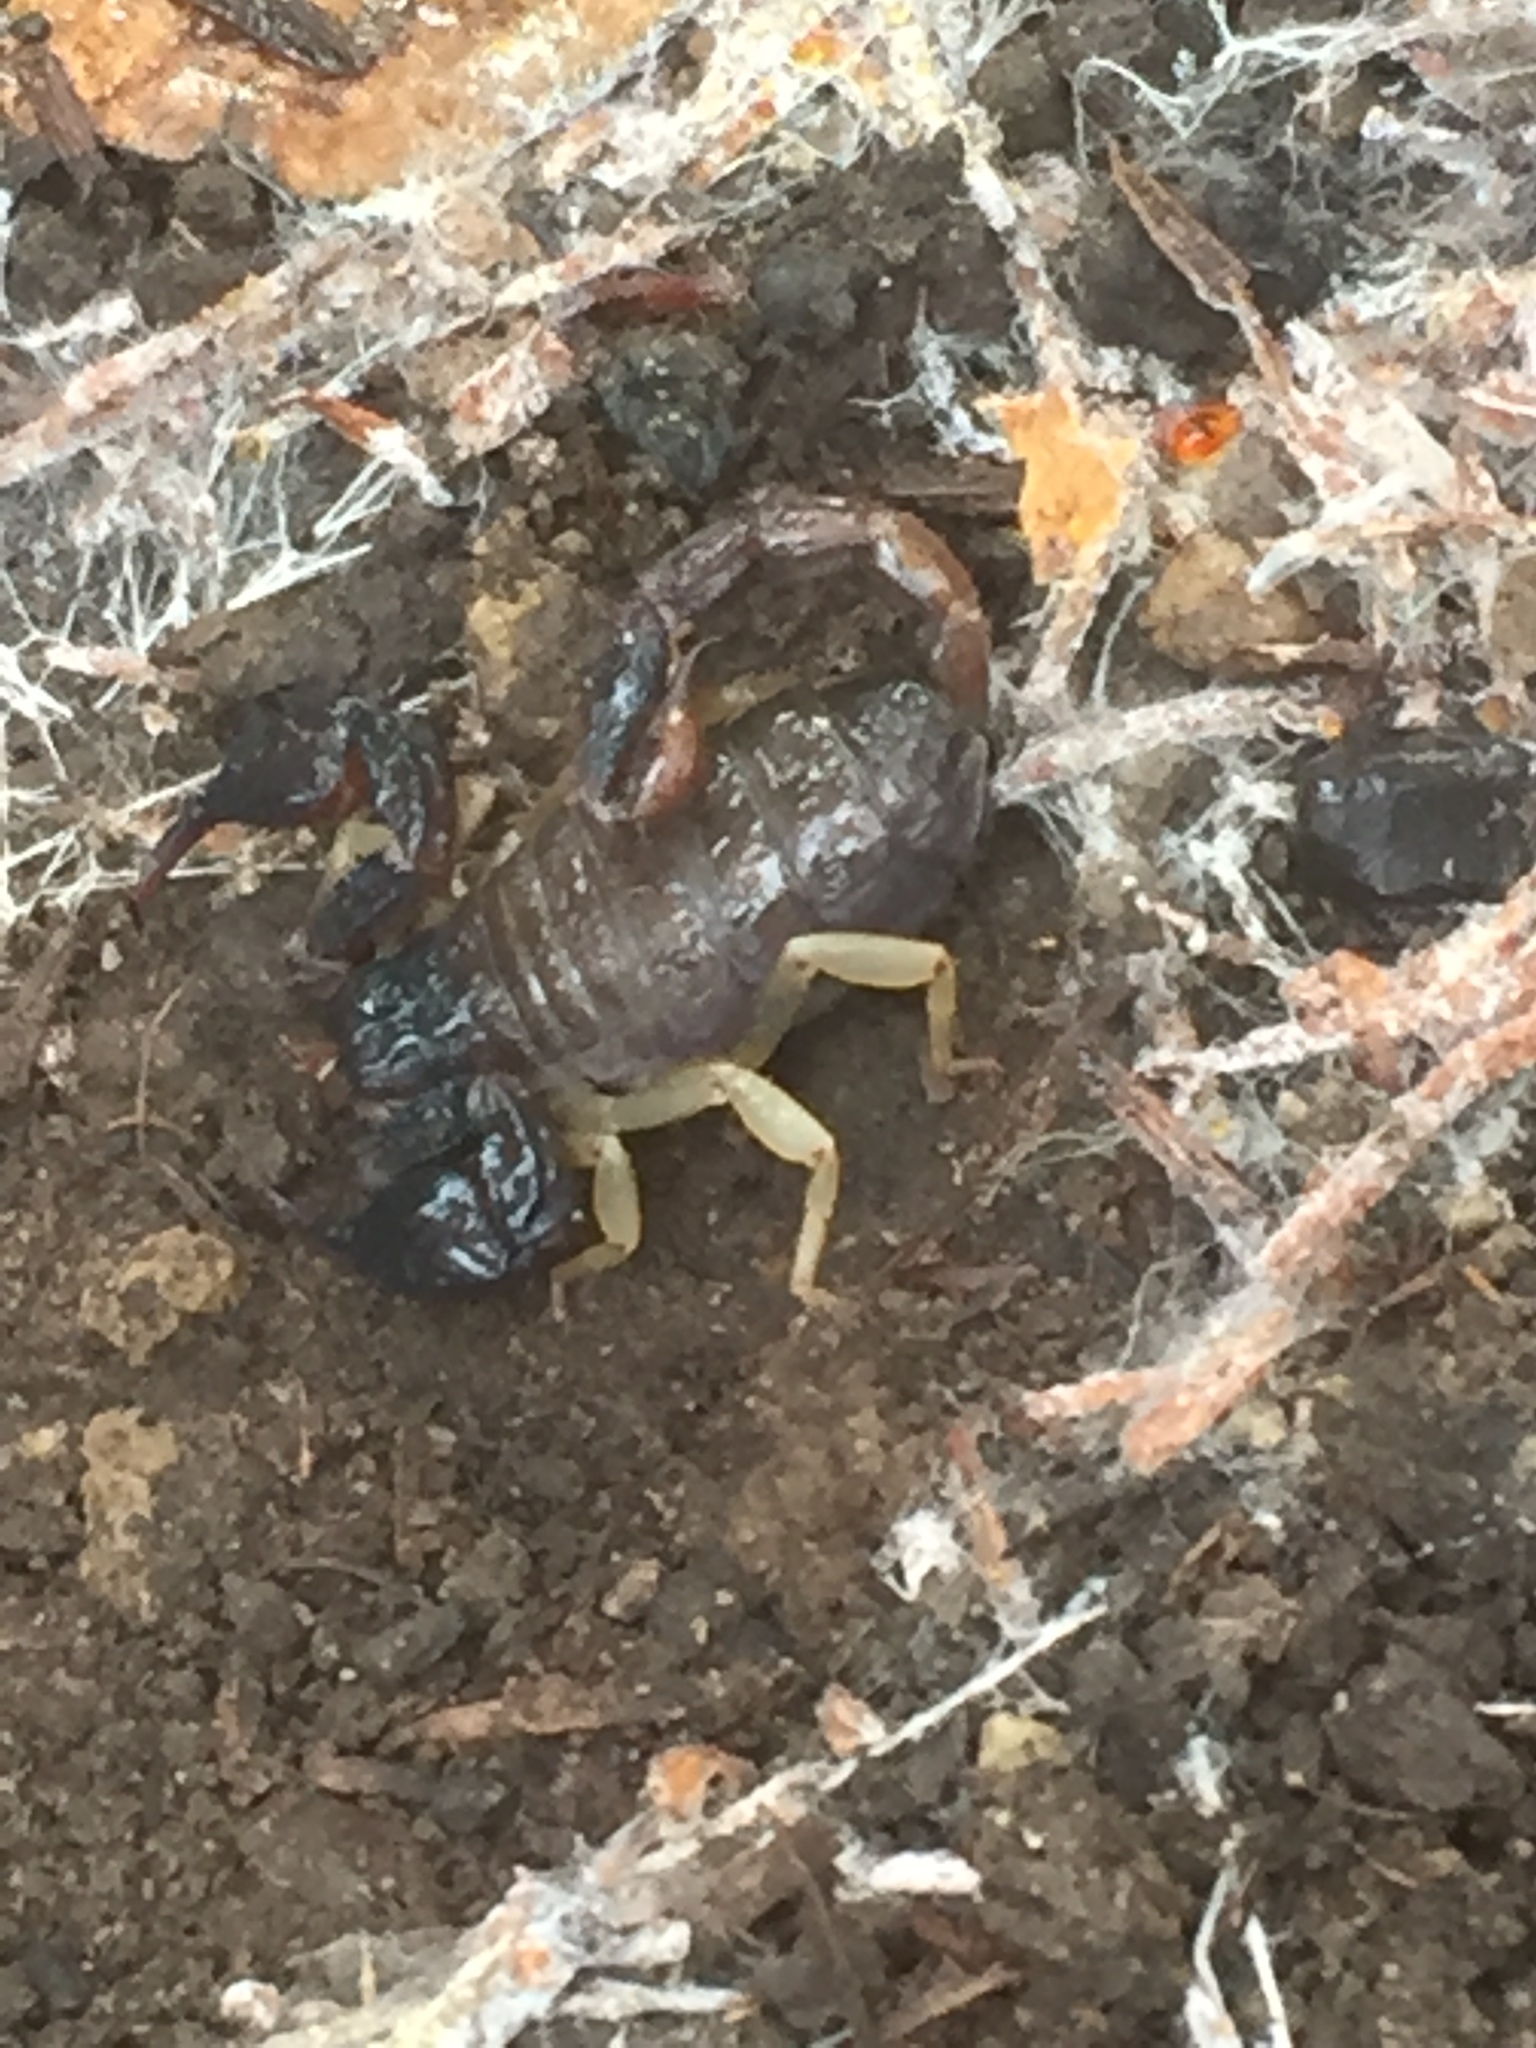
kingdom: Animalia
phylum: Arthropoda
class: Arachnida
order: Scorpiones
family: Chactidae
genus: Uroctonus
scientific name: Uroctonus mordax
